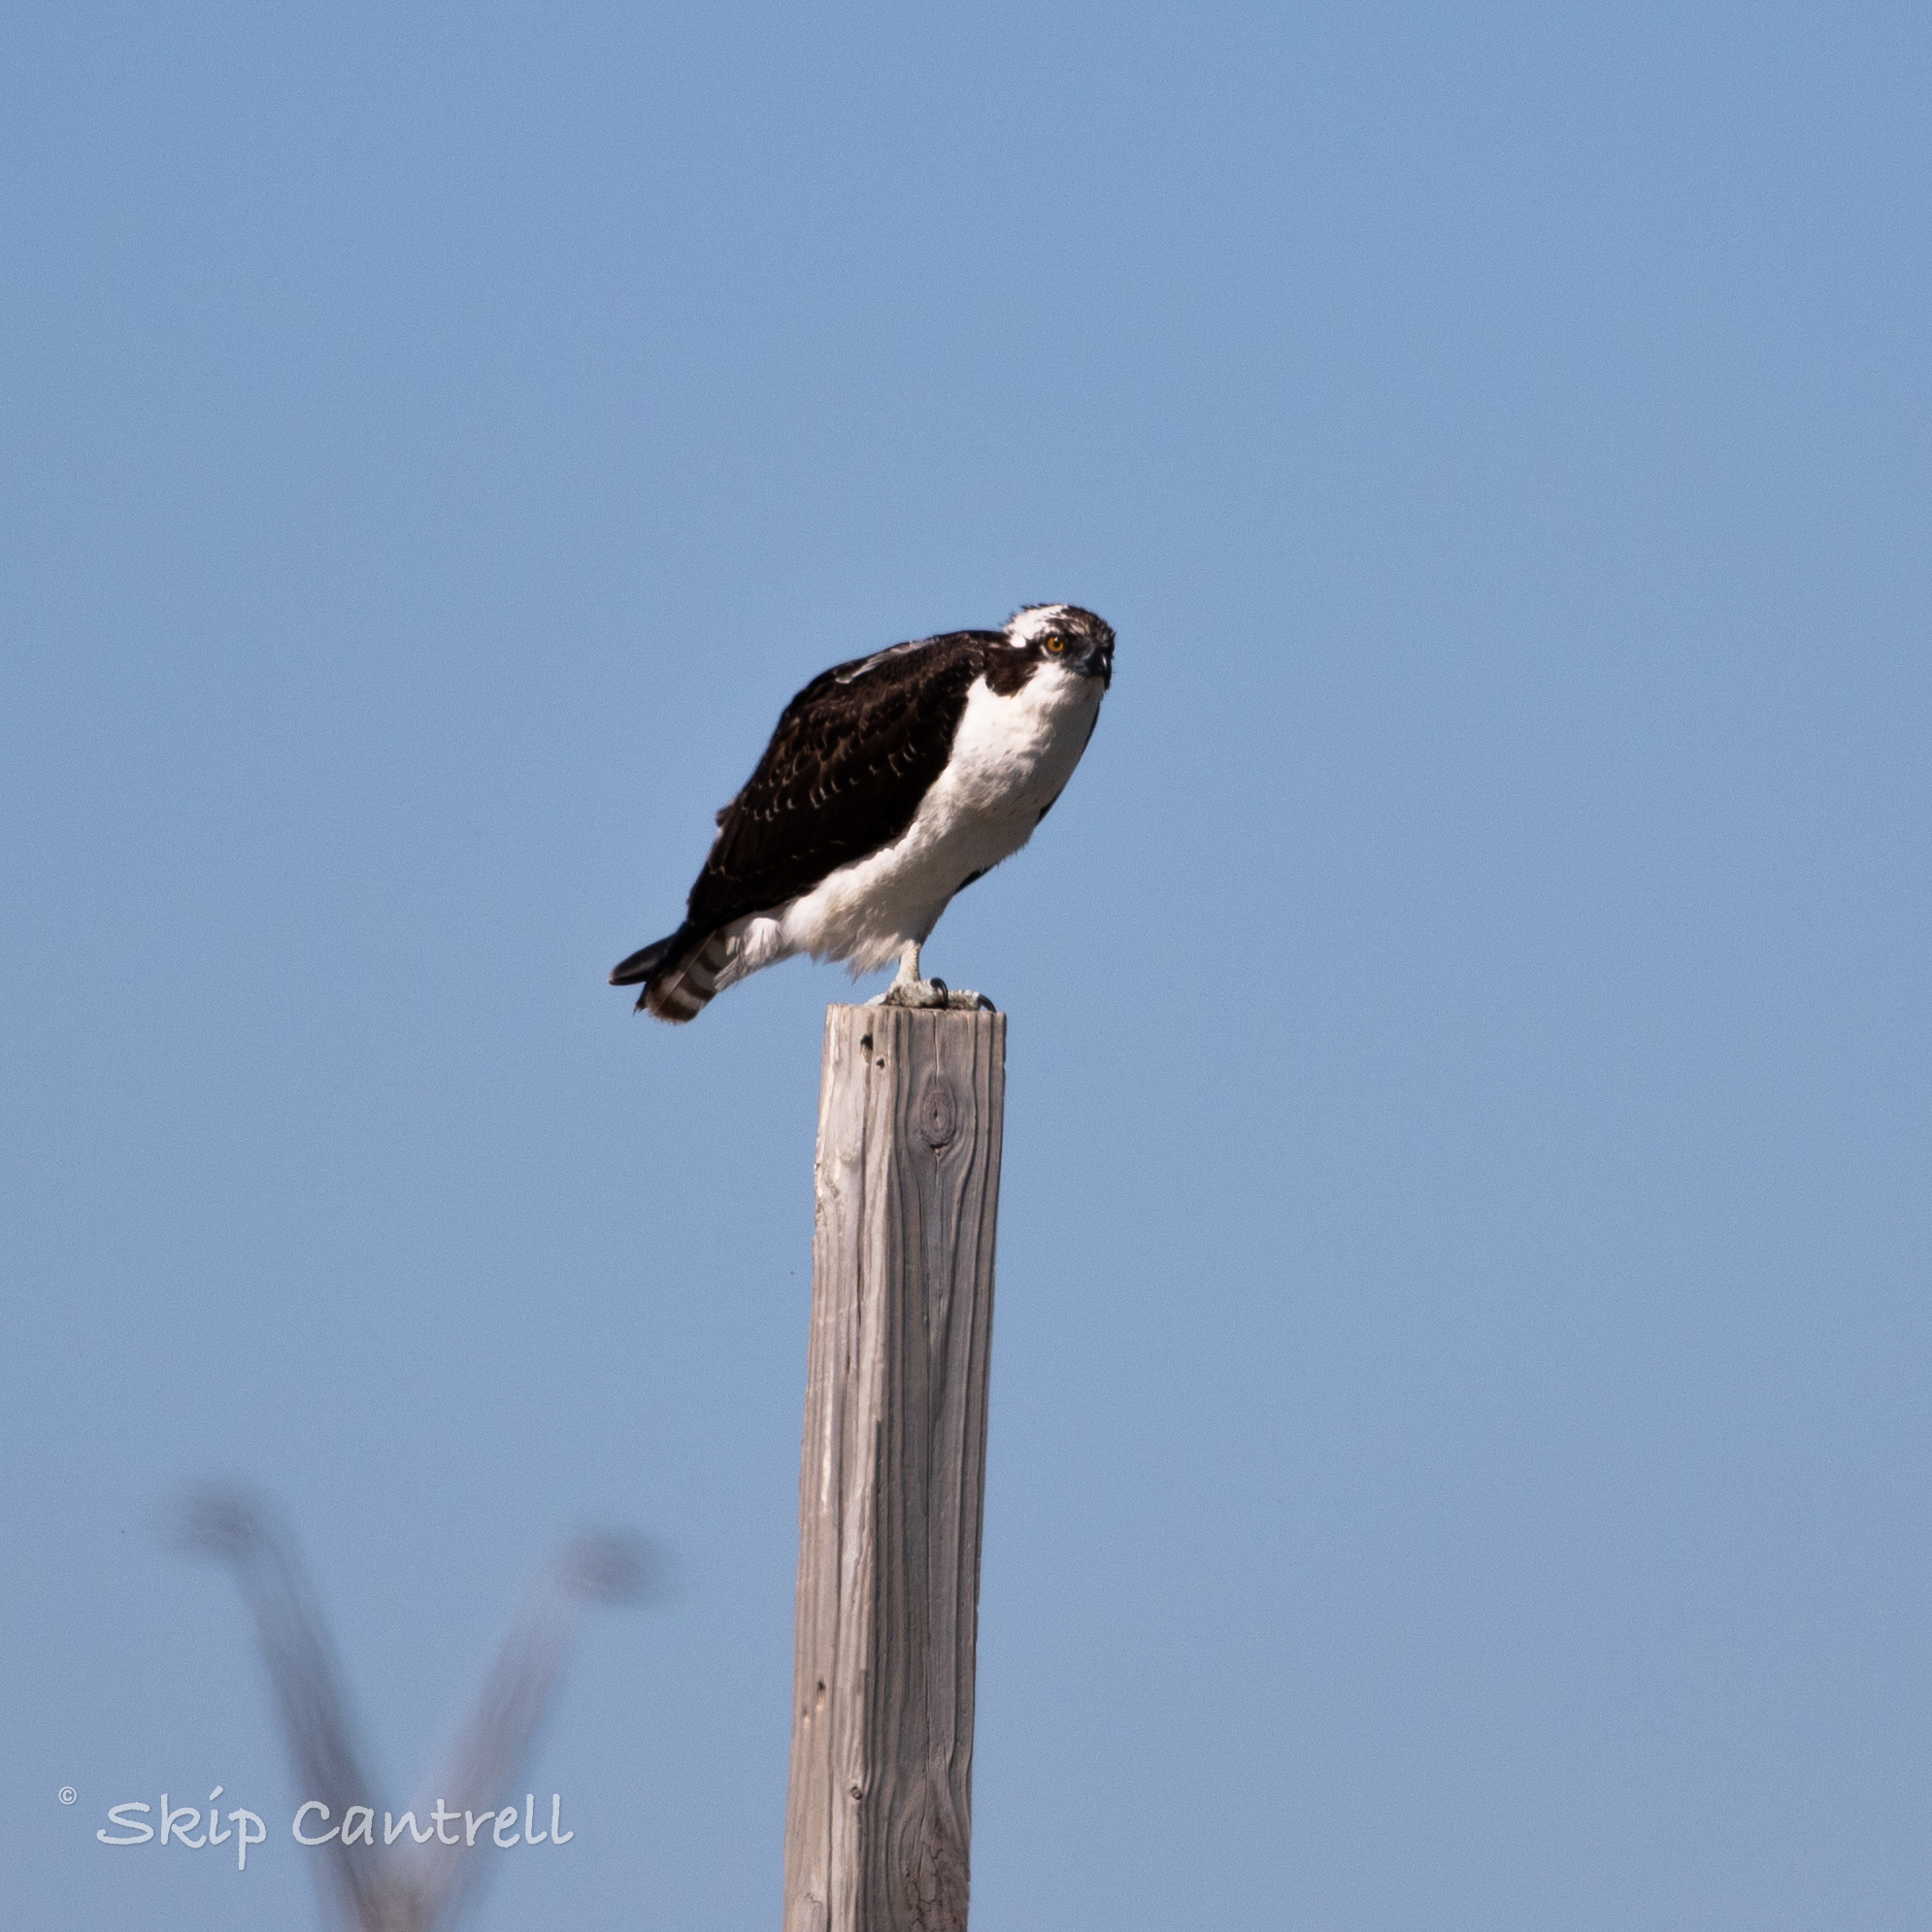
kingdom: Animalia
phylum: Chordata
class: Aves
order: Accipitriformes
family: Pandionidae
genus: Pandion
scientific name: Pandion haliaetus
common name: Osprey
